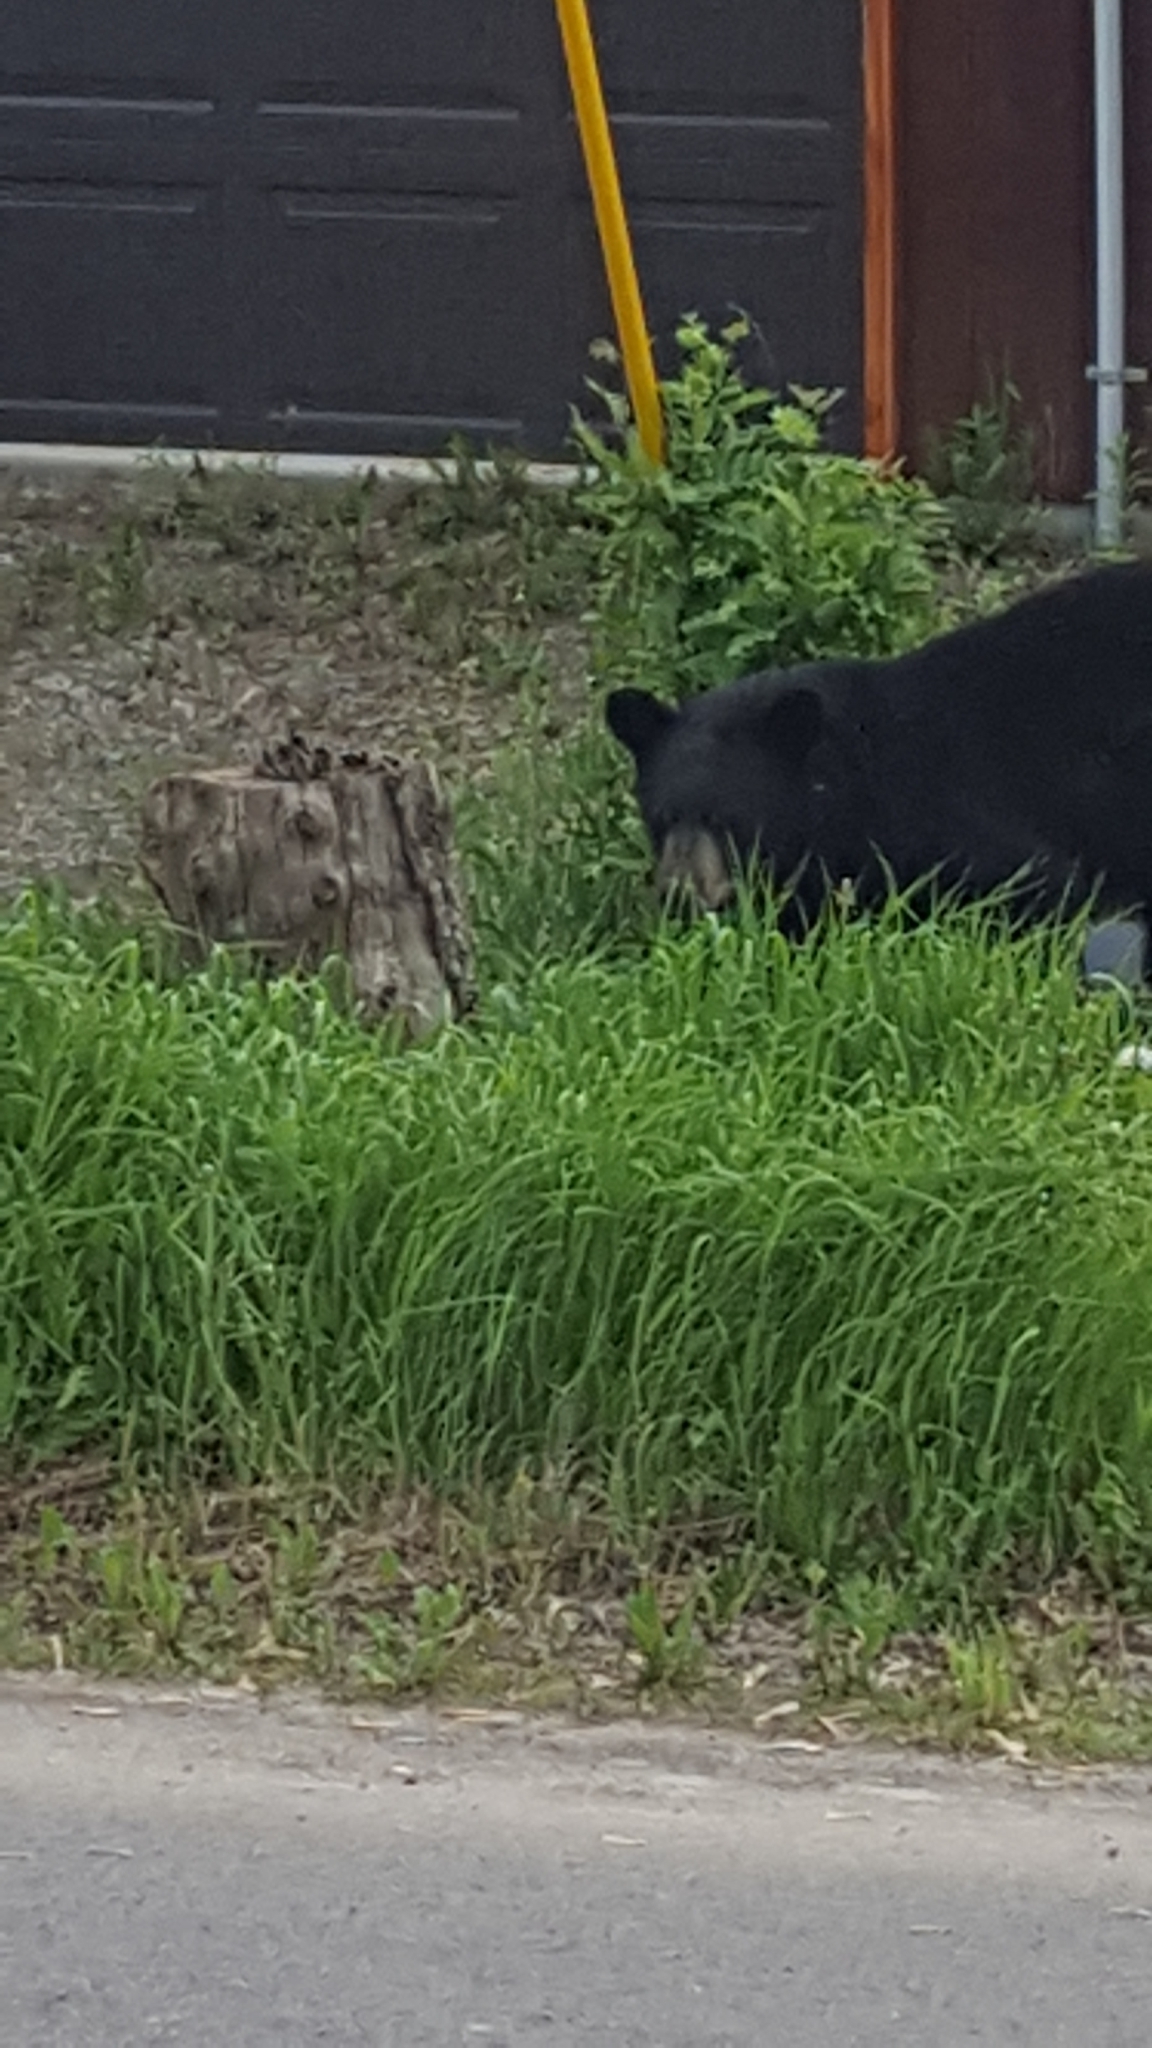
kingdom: Animalia
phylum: Chordata
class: Mammalia
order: Carnivora
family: Ursidae
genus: Ursus
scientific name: Ursus americanus
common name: American black bear
